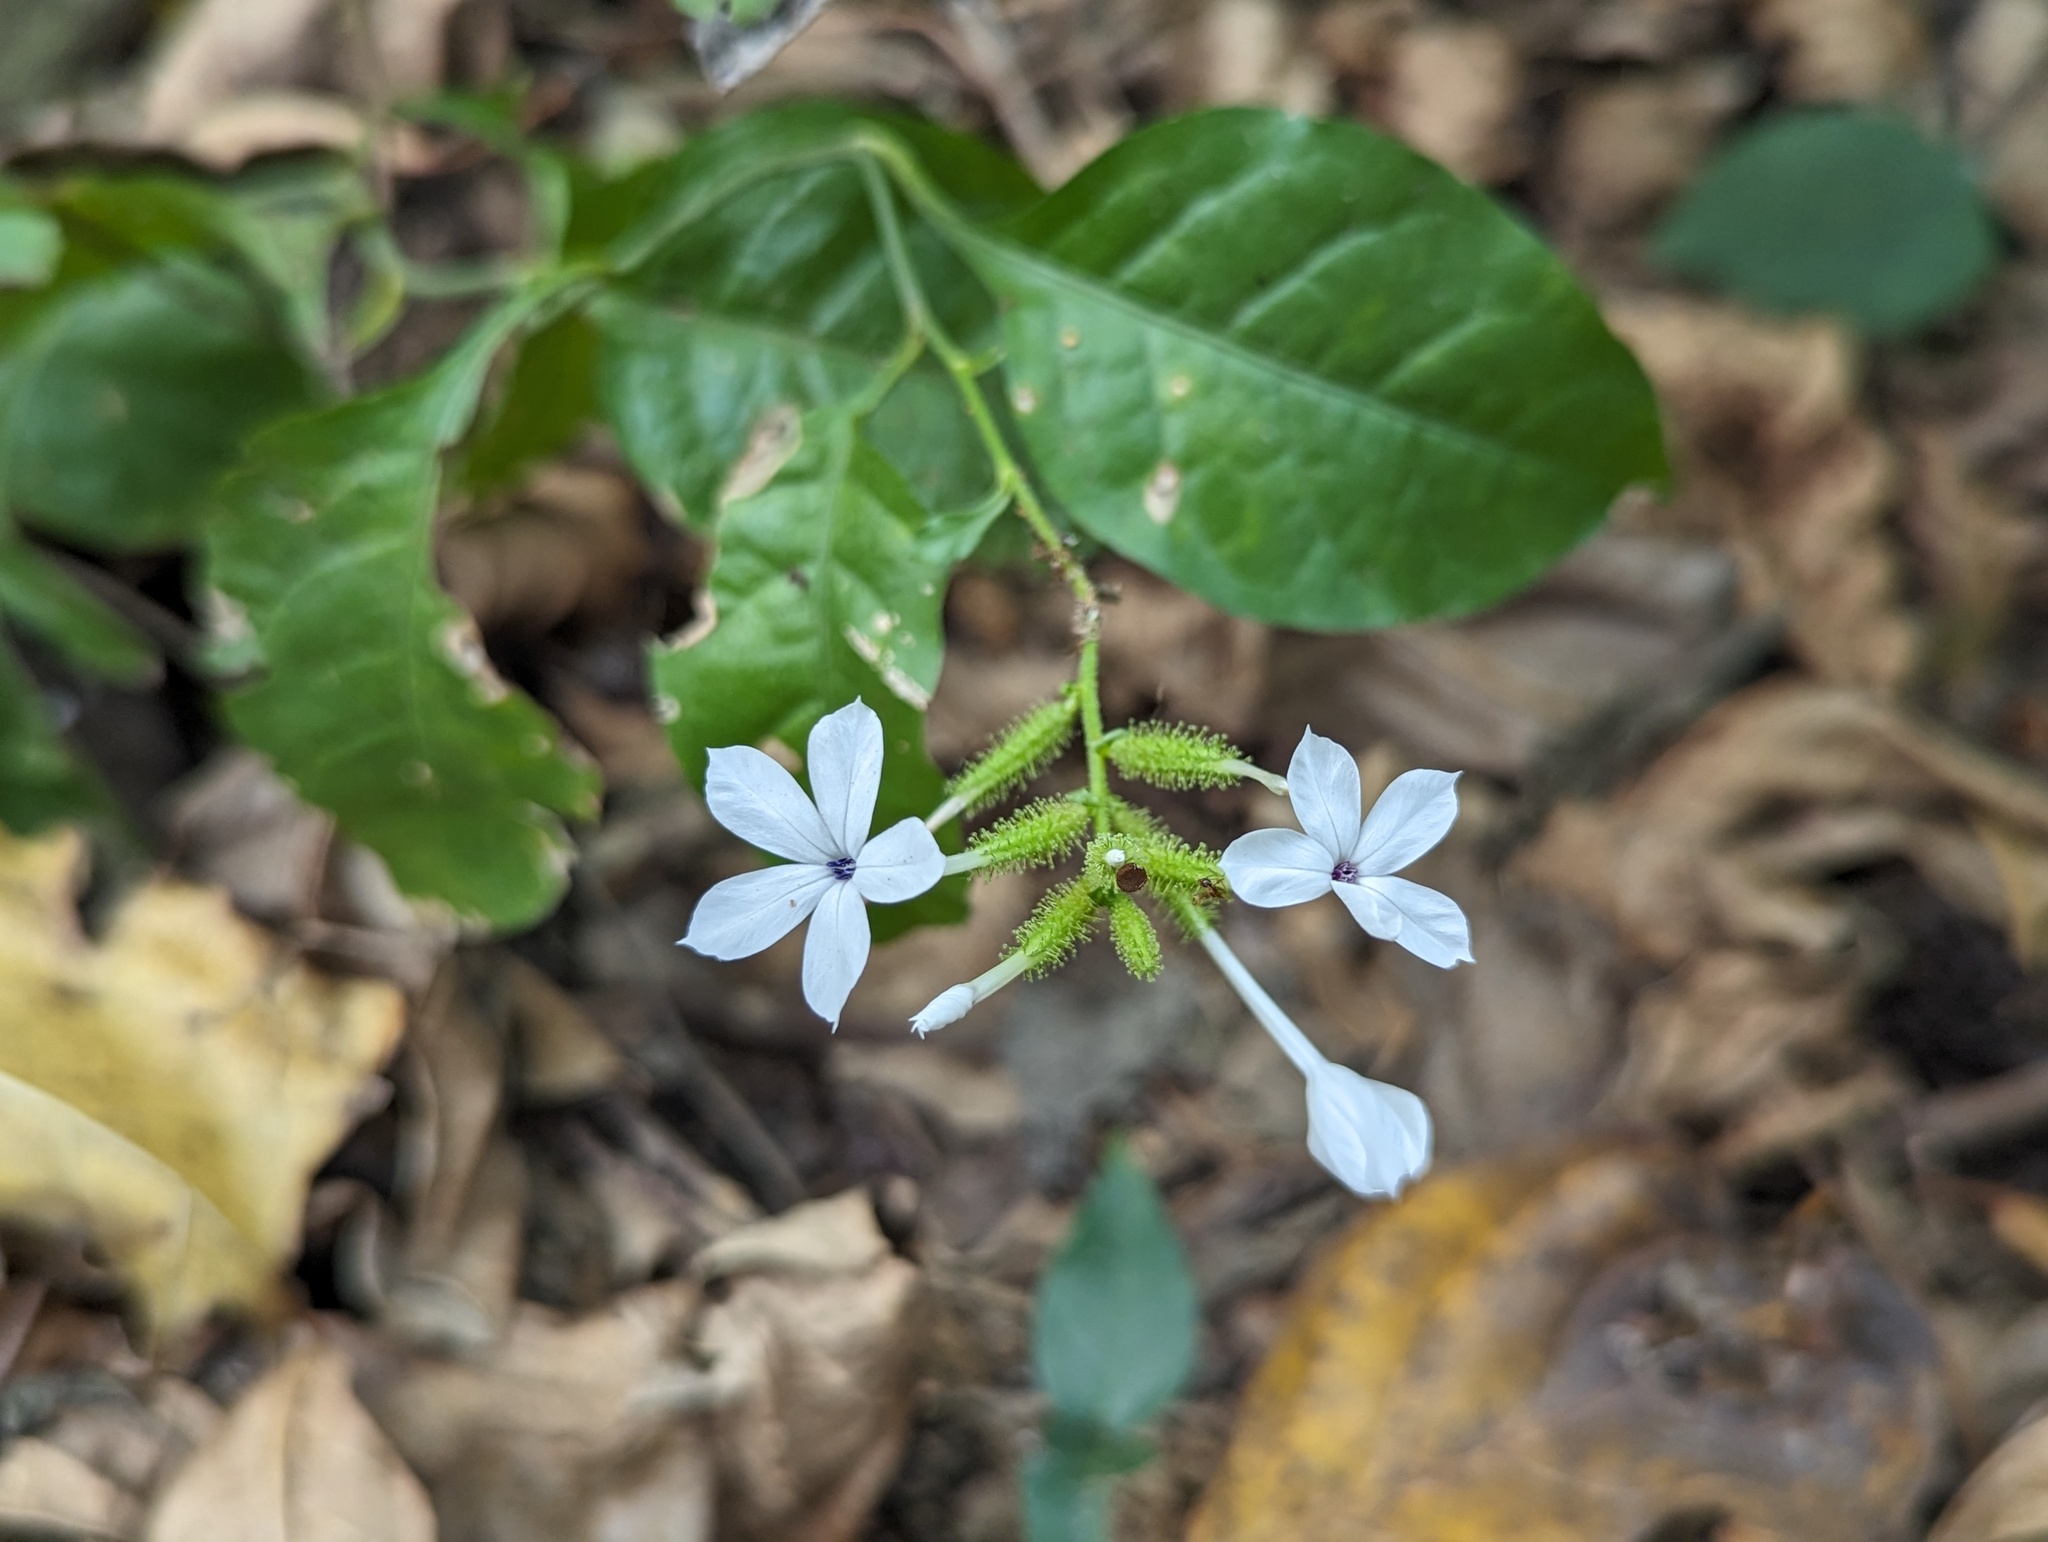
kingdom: Plantae
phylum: Tracheophyta
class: Magnoliopsida
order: Caryophyllales
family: Plumbaginaceae
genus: Plumbago
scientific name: Plumbago zeylanica
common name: Doctorbush
